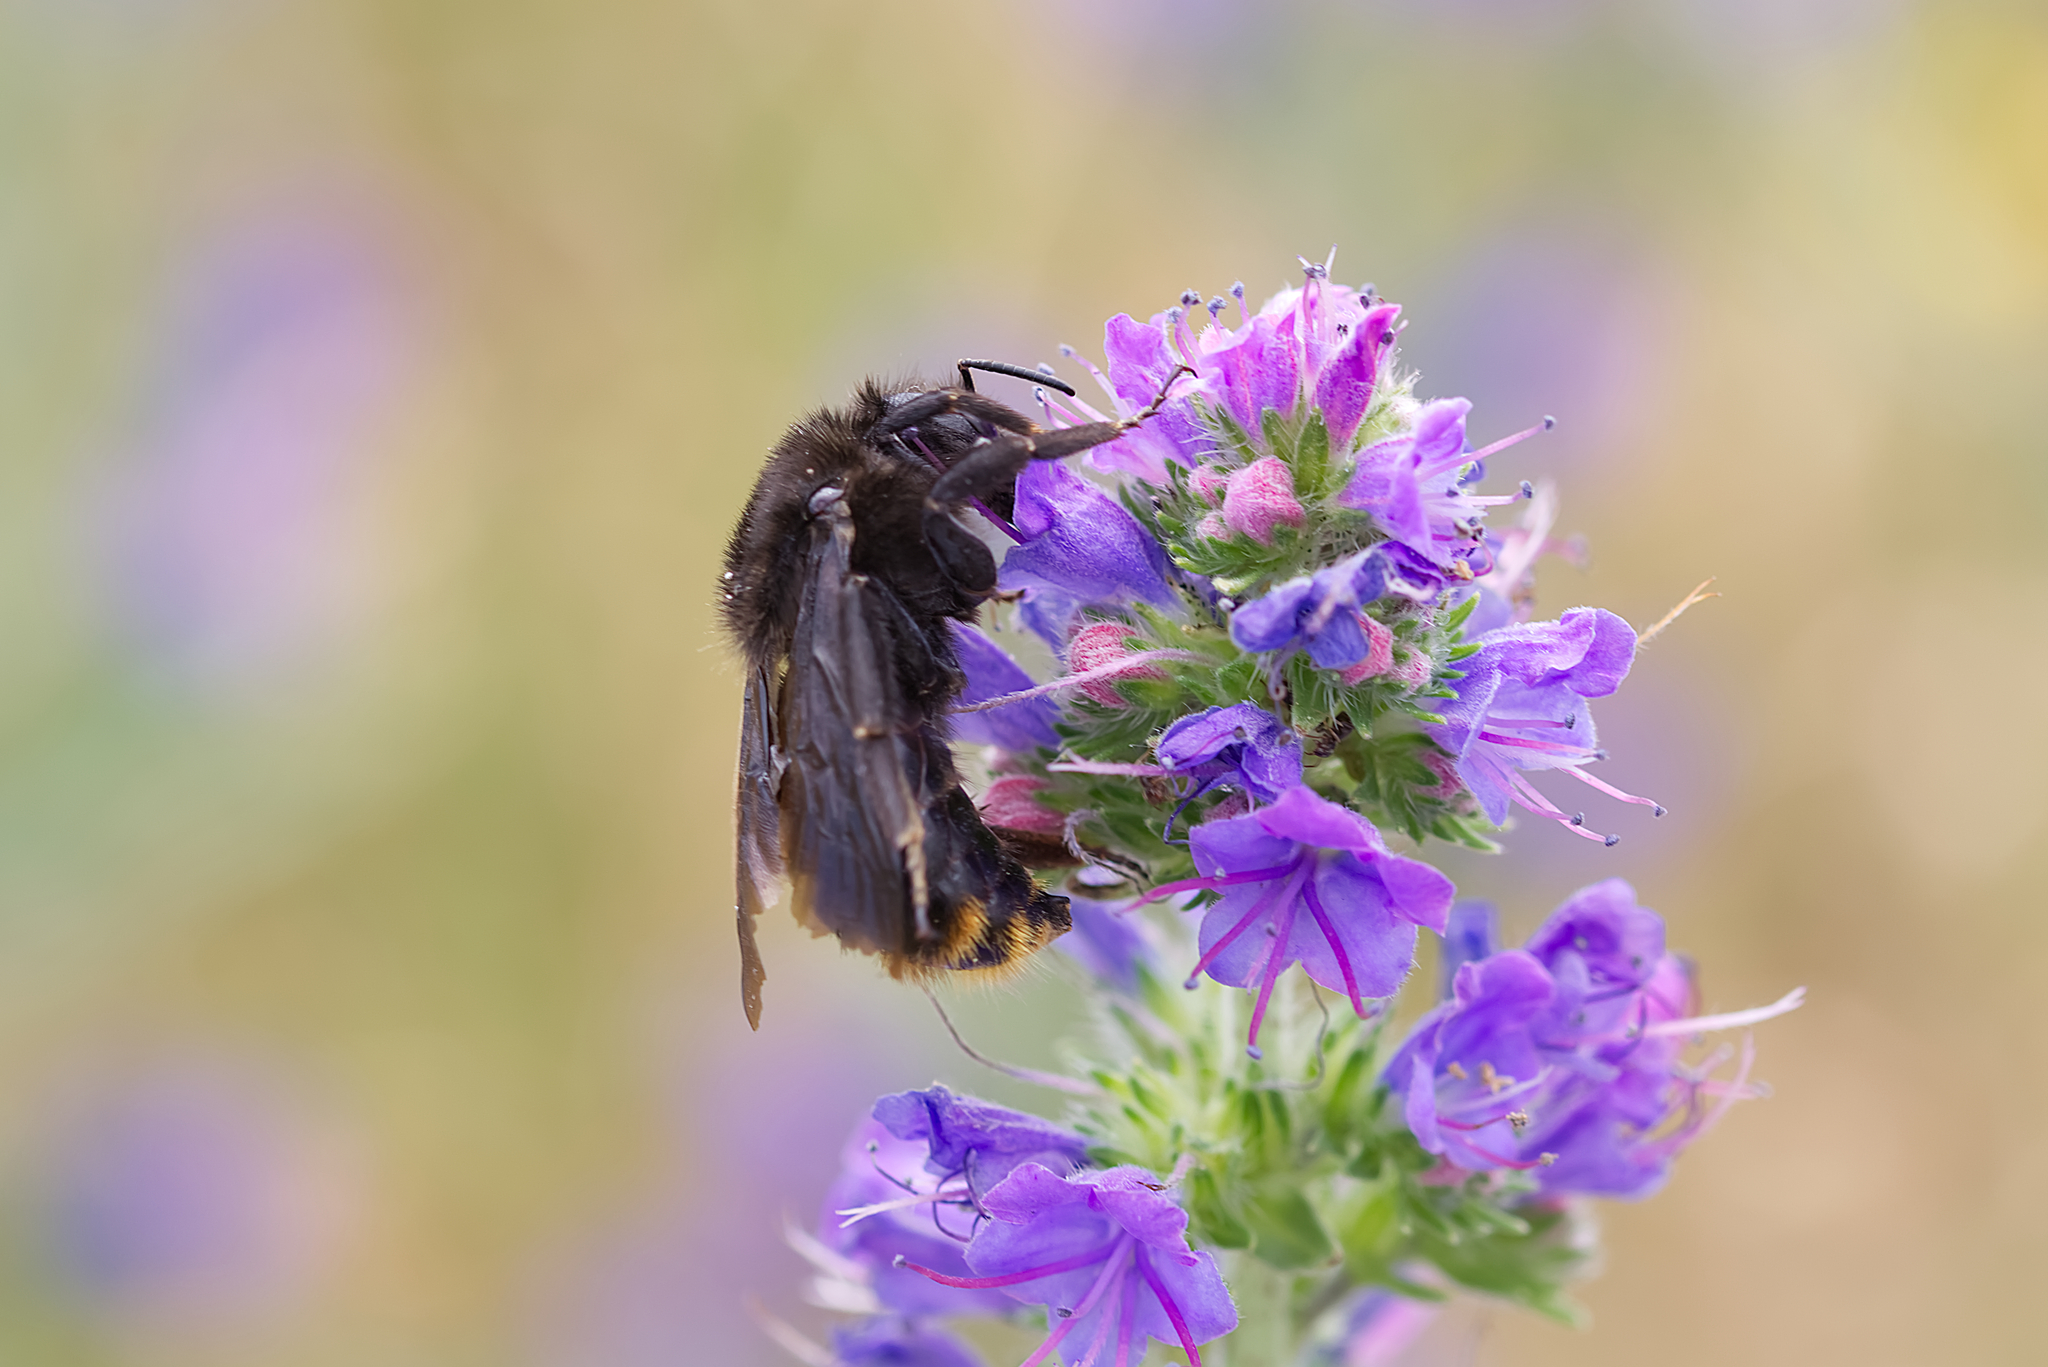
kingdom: Animalia
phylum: Arthropoda
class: Insecta
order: Hymenoptera
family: Apidae
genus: Bombus
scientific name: Bombus rupestris
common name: Hill cuckoo-bee
